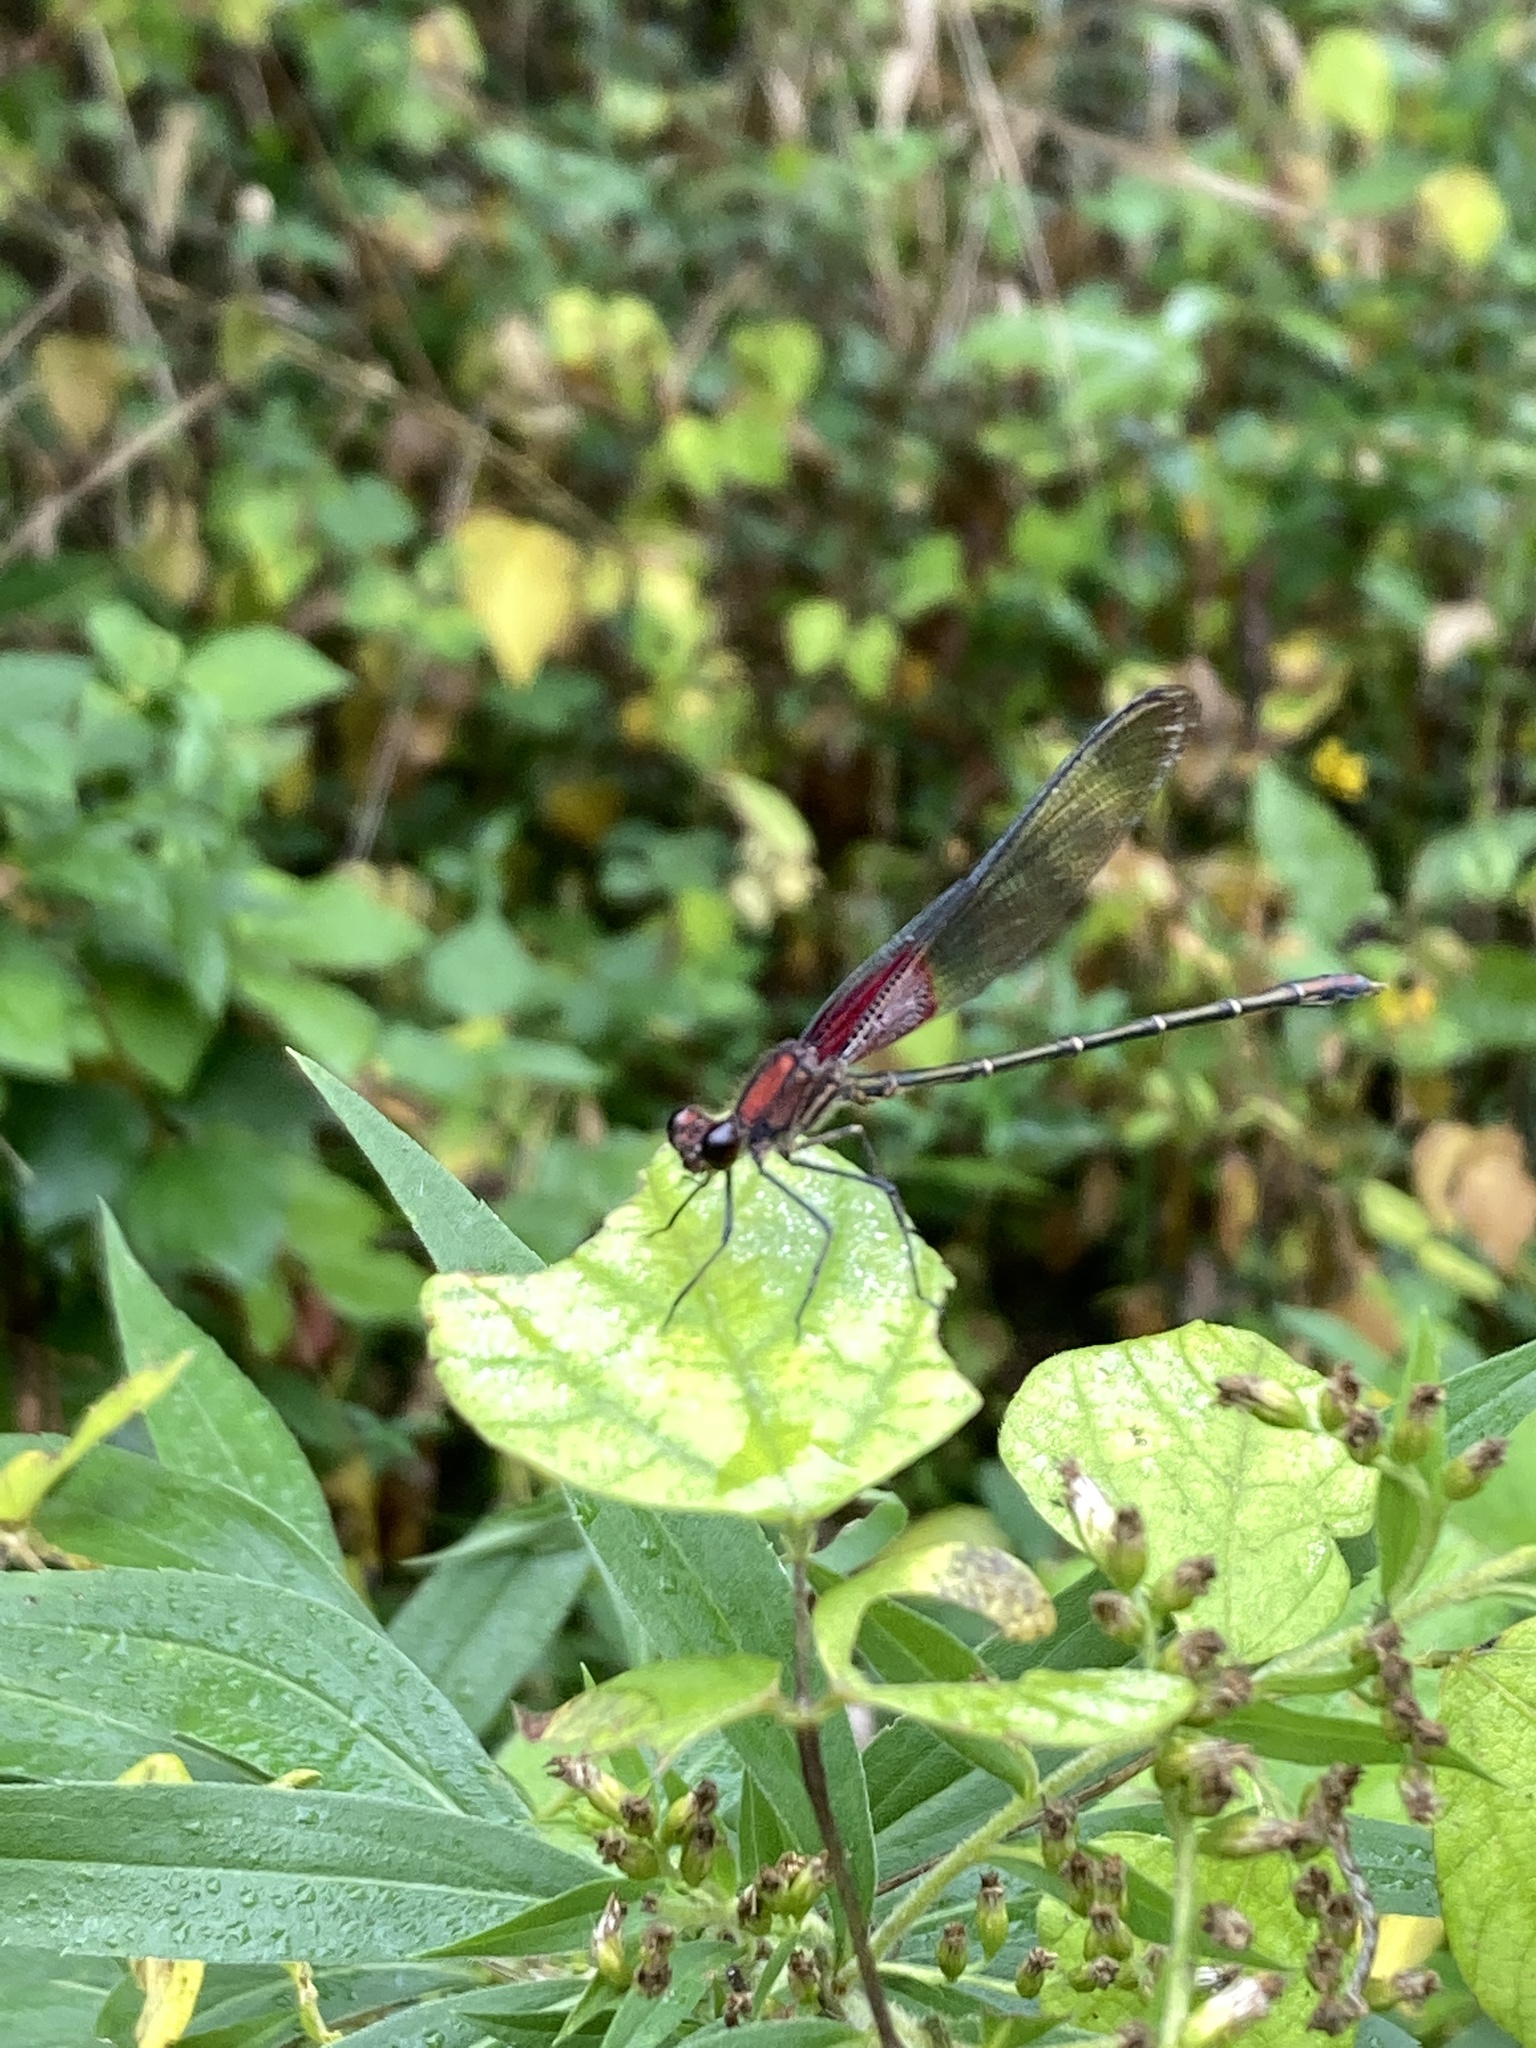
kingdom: Animalia
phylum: Arthropoda
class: Insecta
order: Odonata
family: Calopterygidae
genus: Hetaerina
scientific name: Hetaerina americana
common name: American rubyspot
